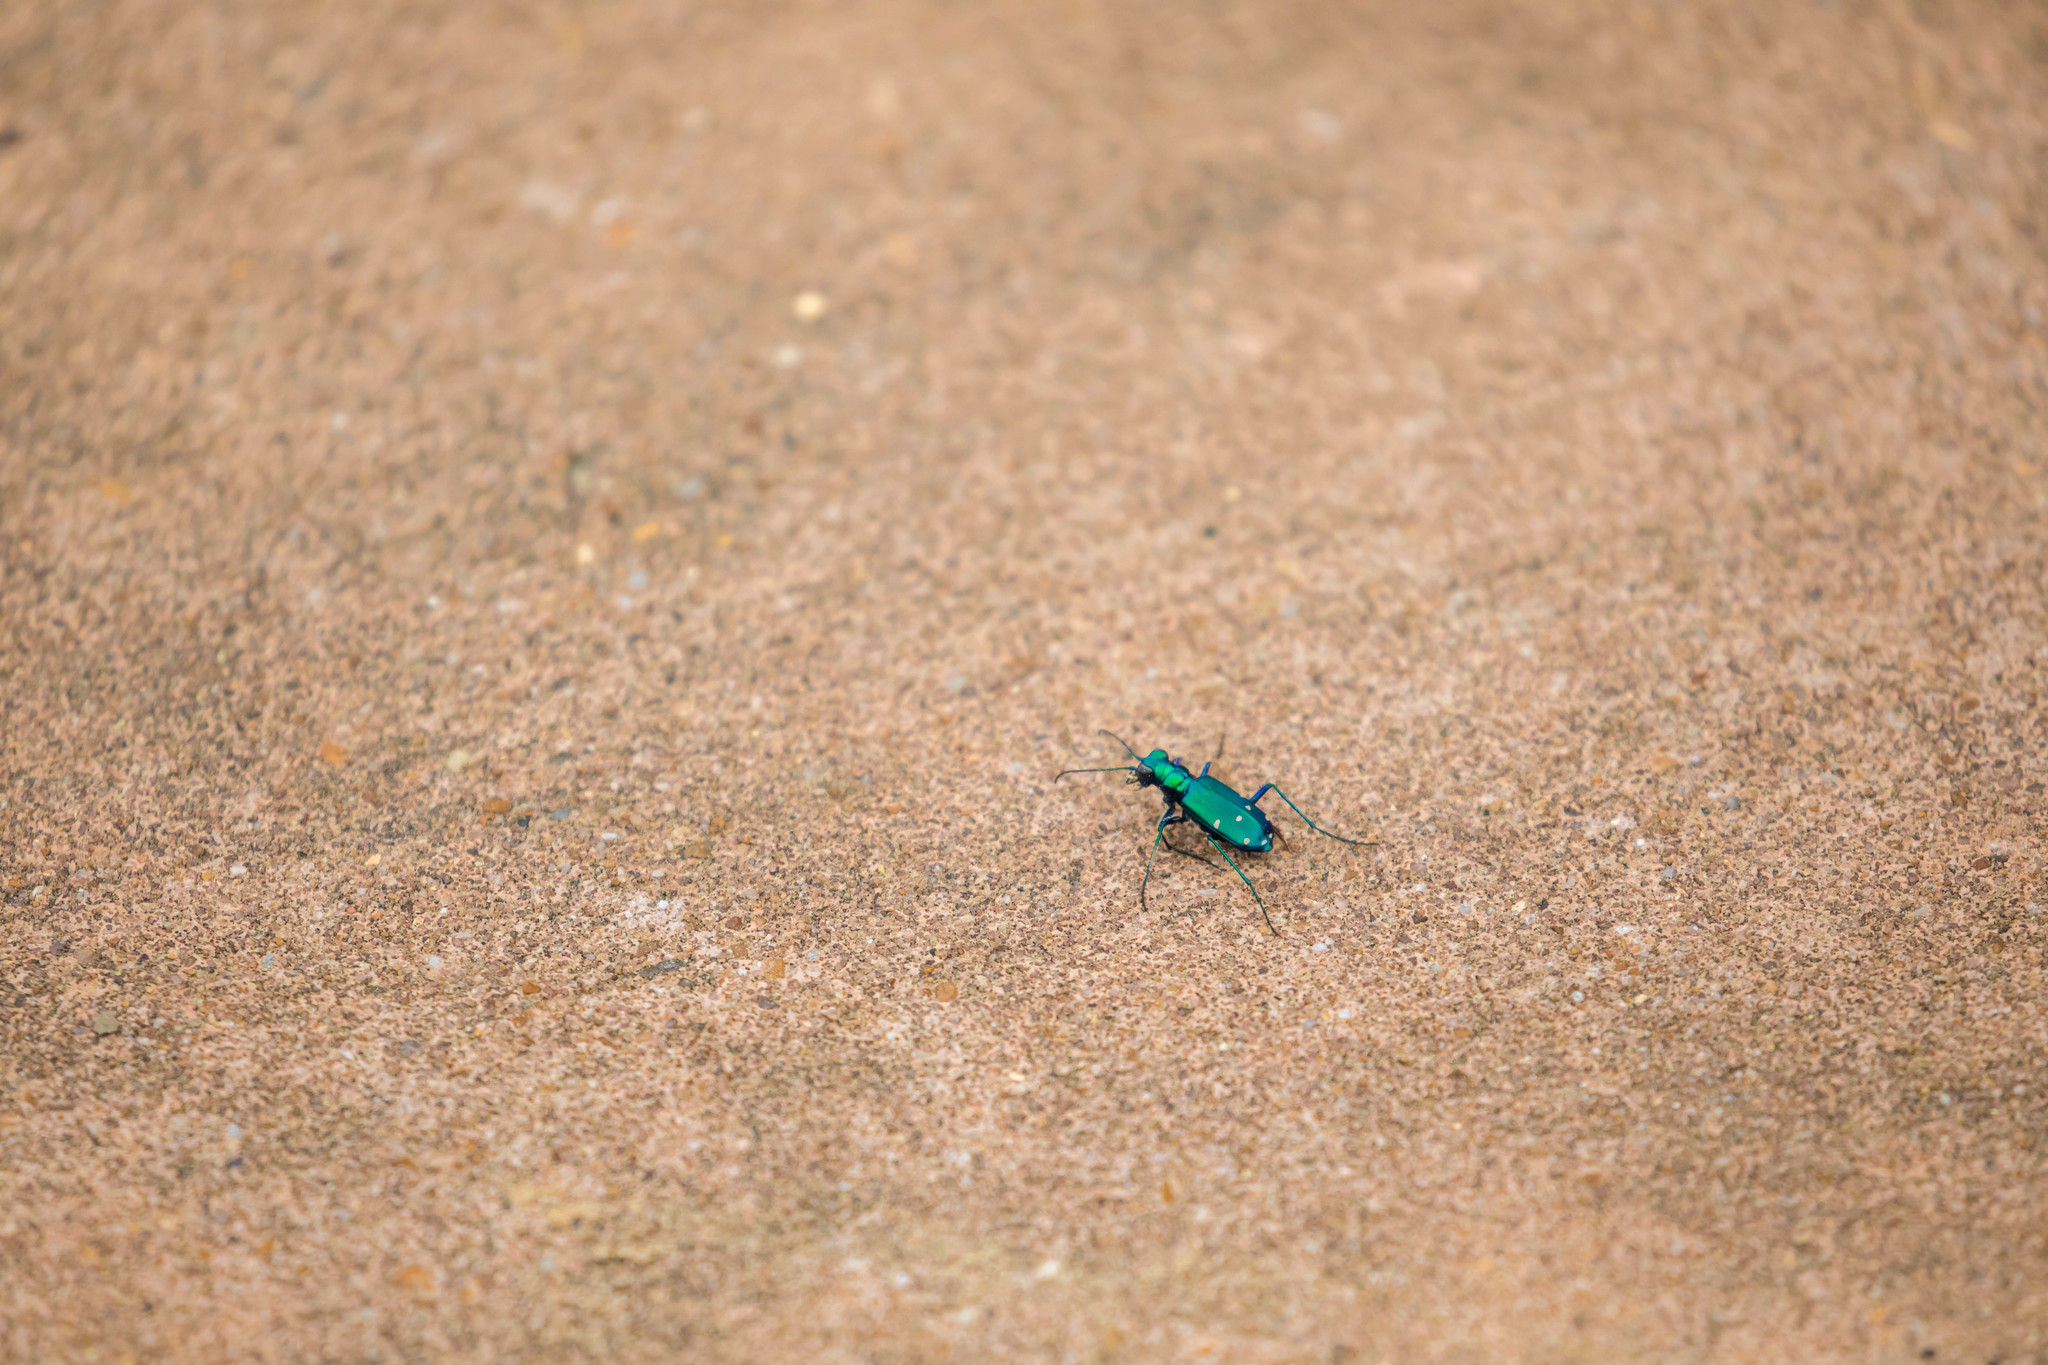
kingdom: Animalia
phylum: Arthropoda
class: Insecta
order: Coleoptera
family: Carabidae
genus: Cicindela
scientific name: Cicindela sexguttata
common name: Six-spotted tiger beetle
